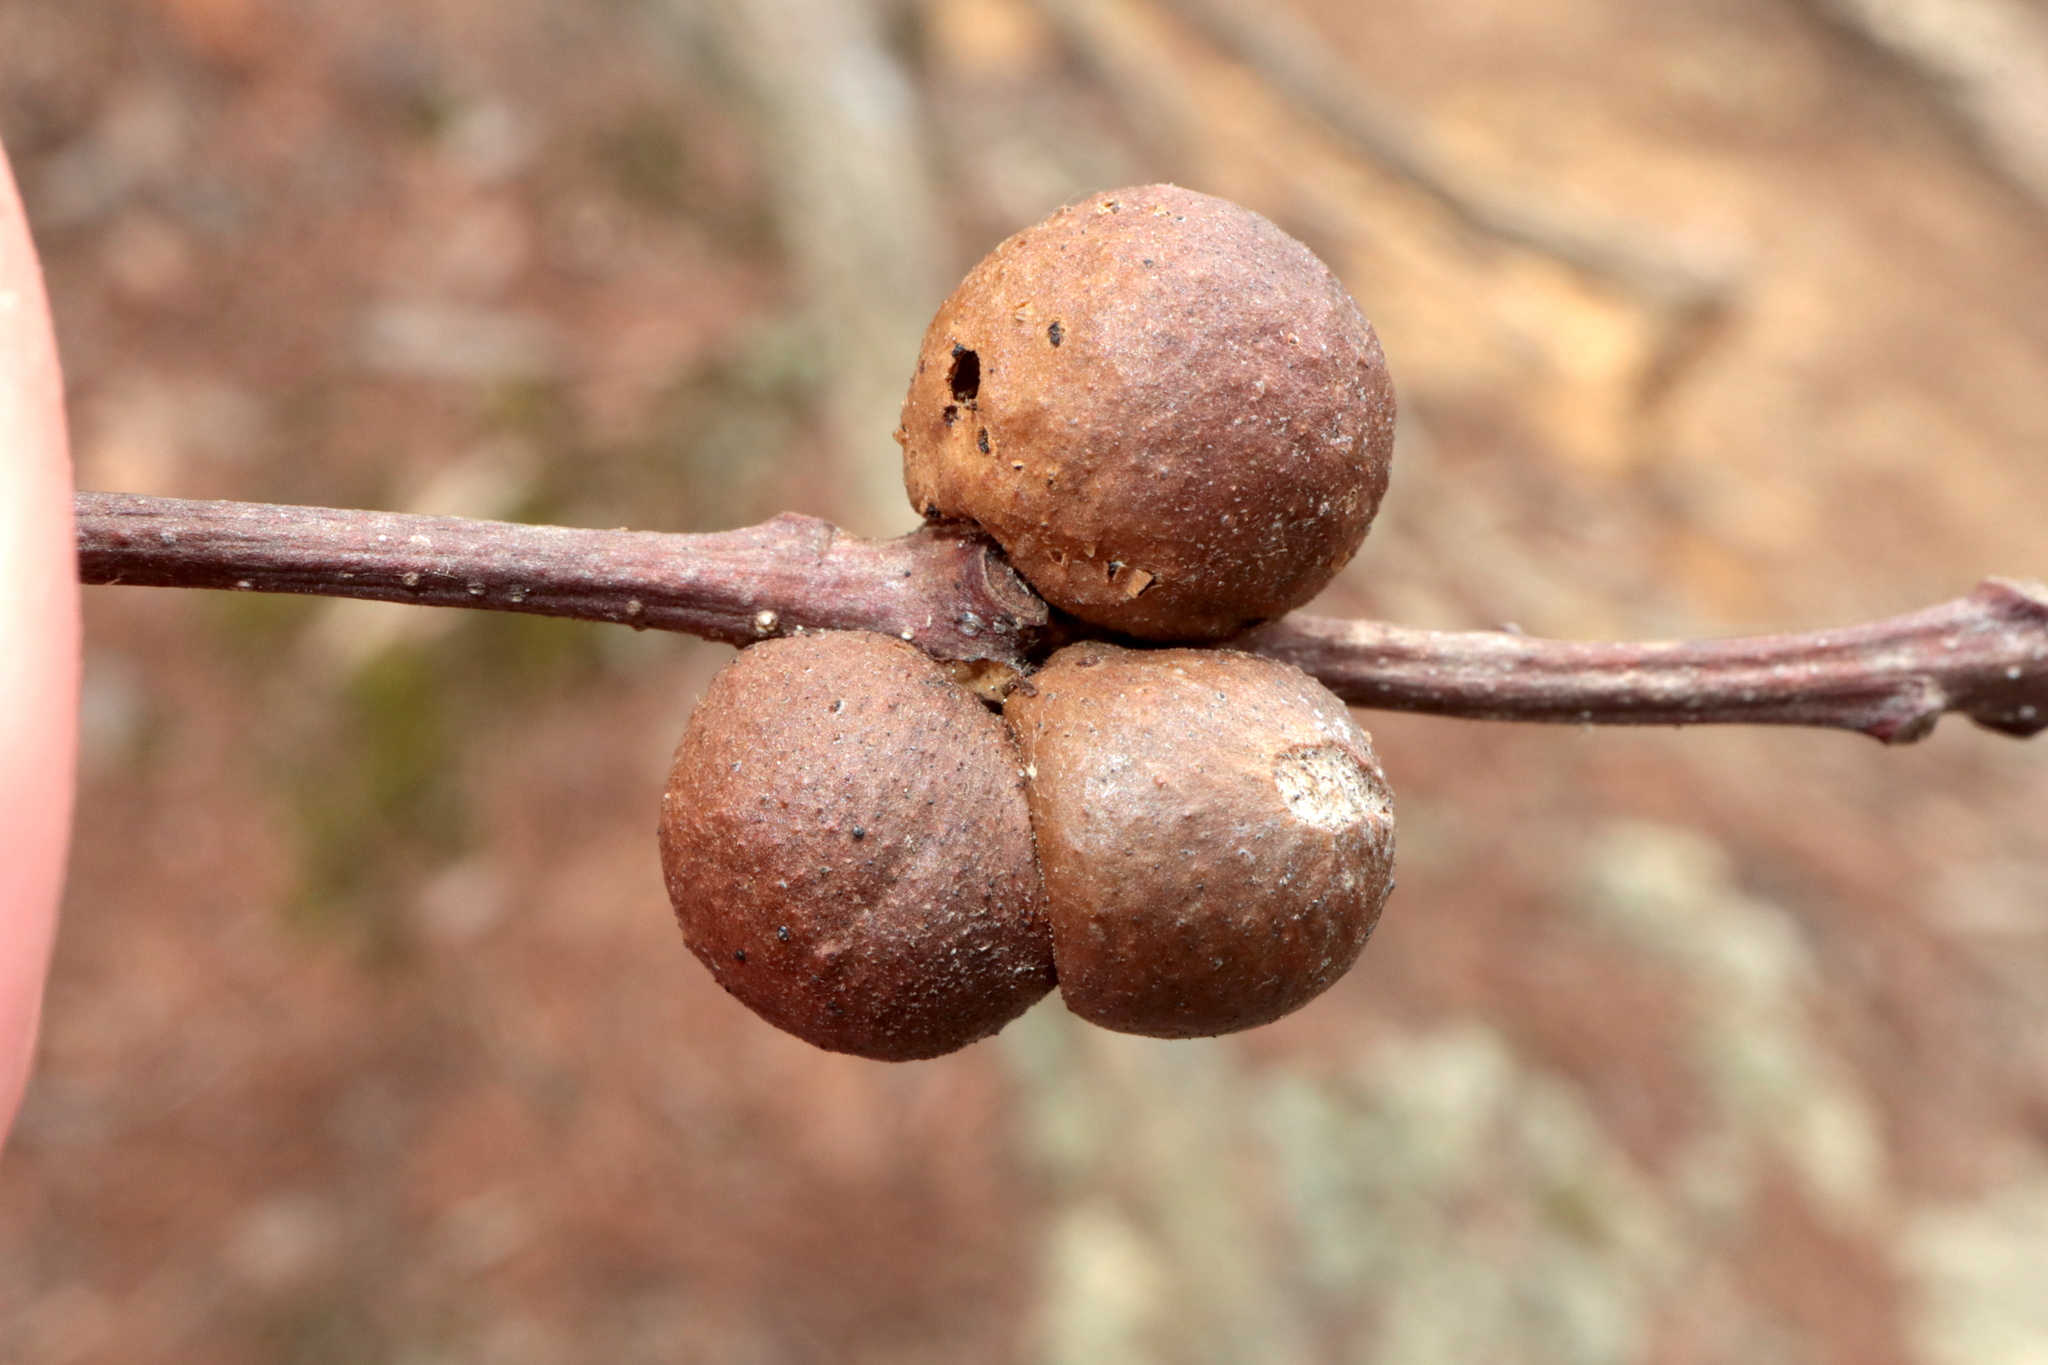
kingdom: Animalia
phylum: Arthropoda
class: Insecta
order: Hymenoptera
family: Cynipidae
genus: Disholcaspis
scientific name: Disholcaspis quercusglobulus
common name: Round bullet gall wasp
